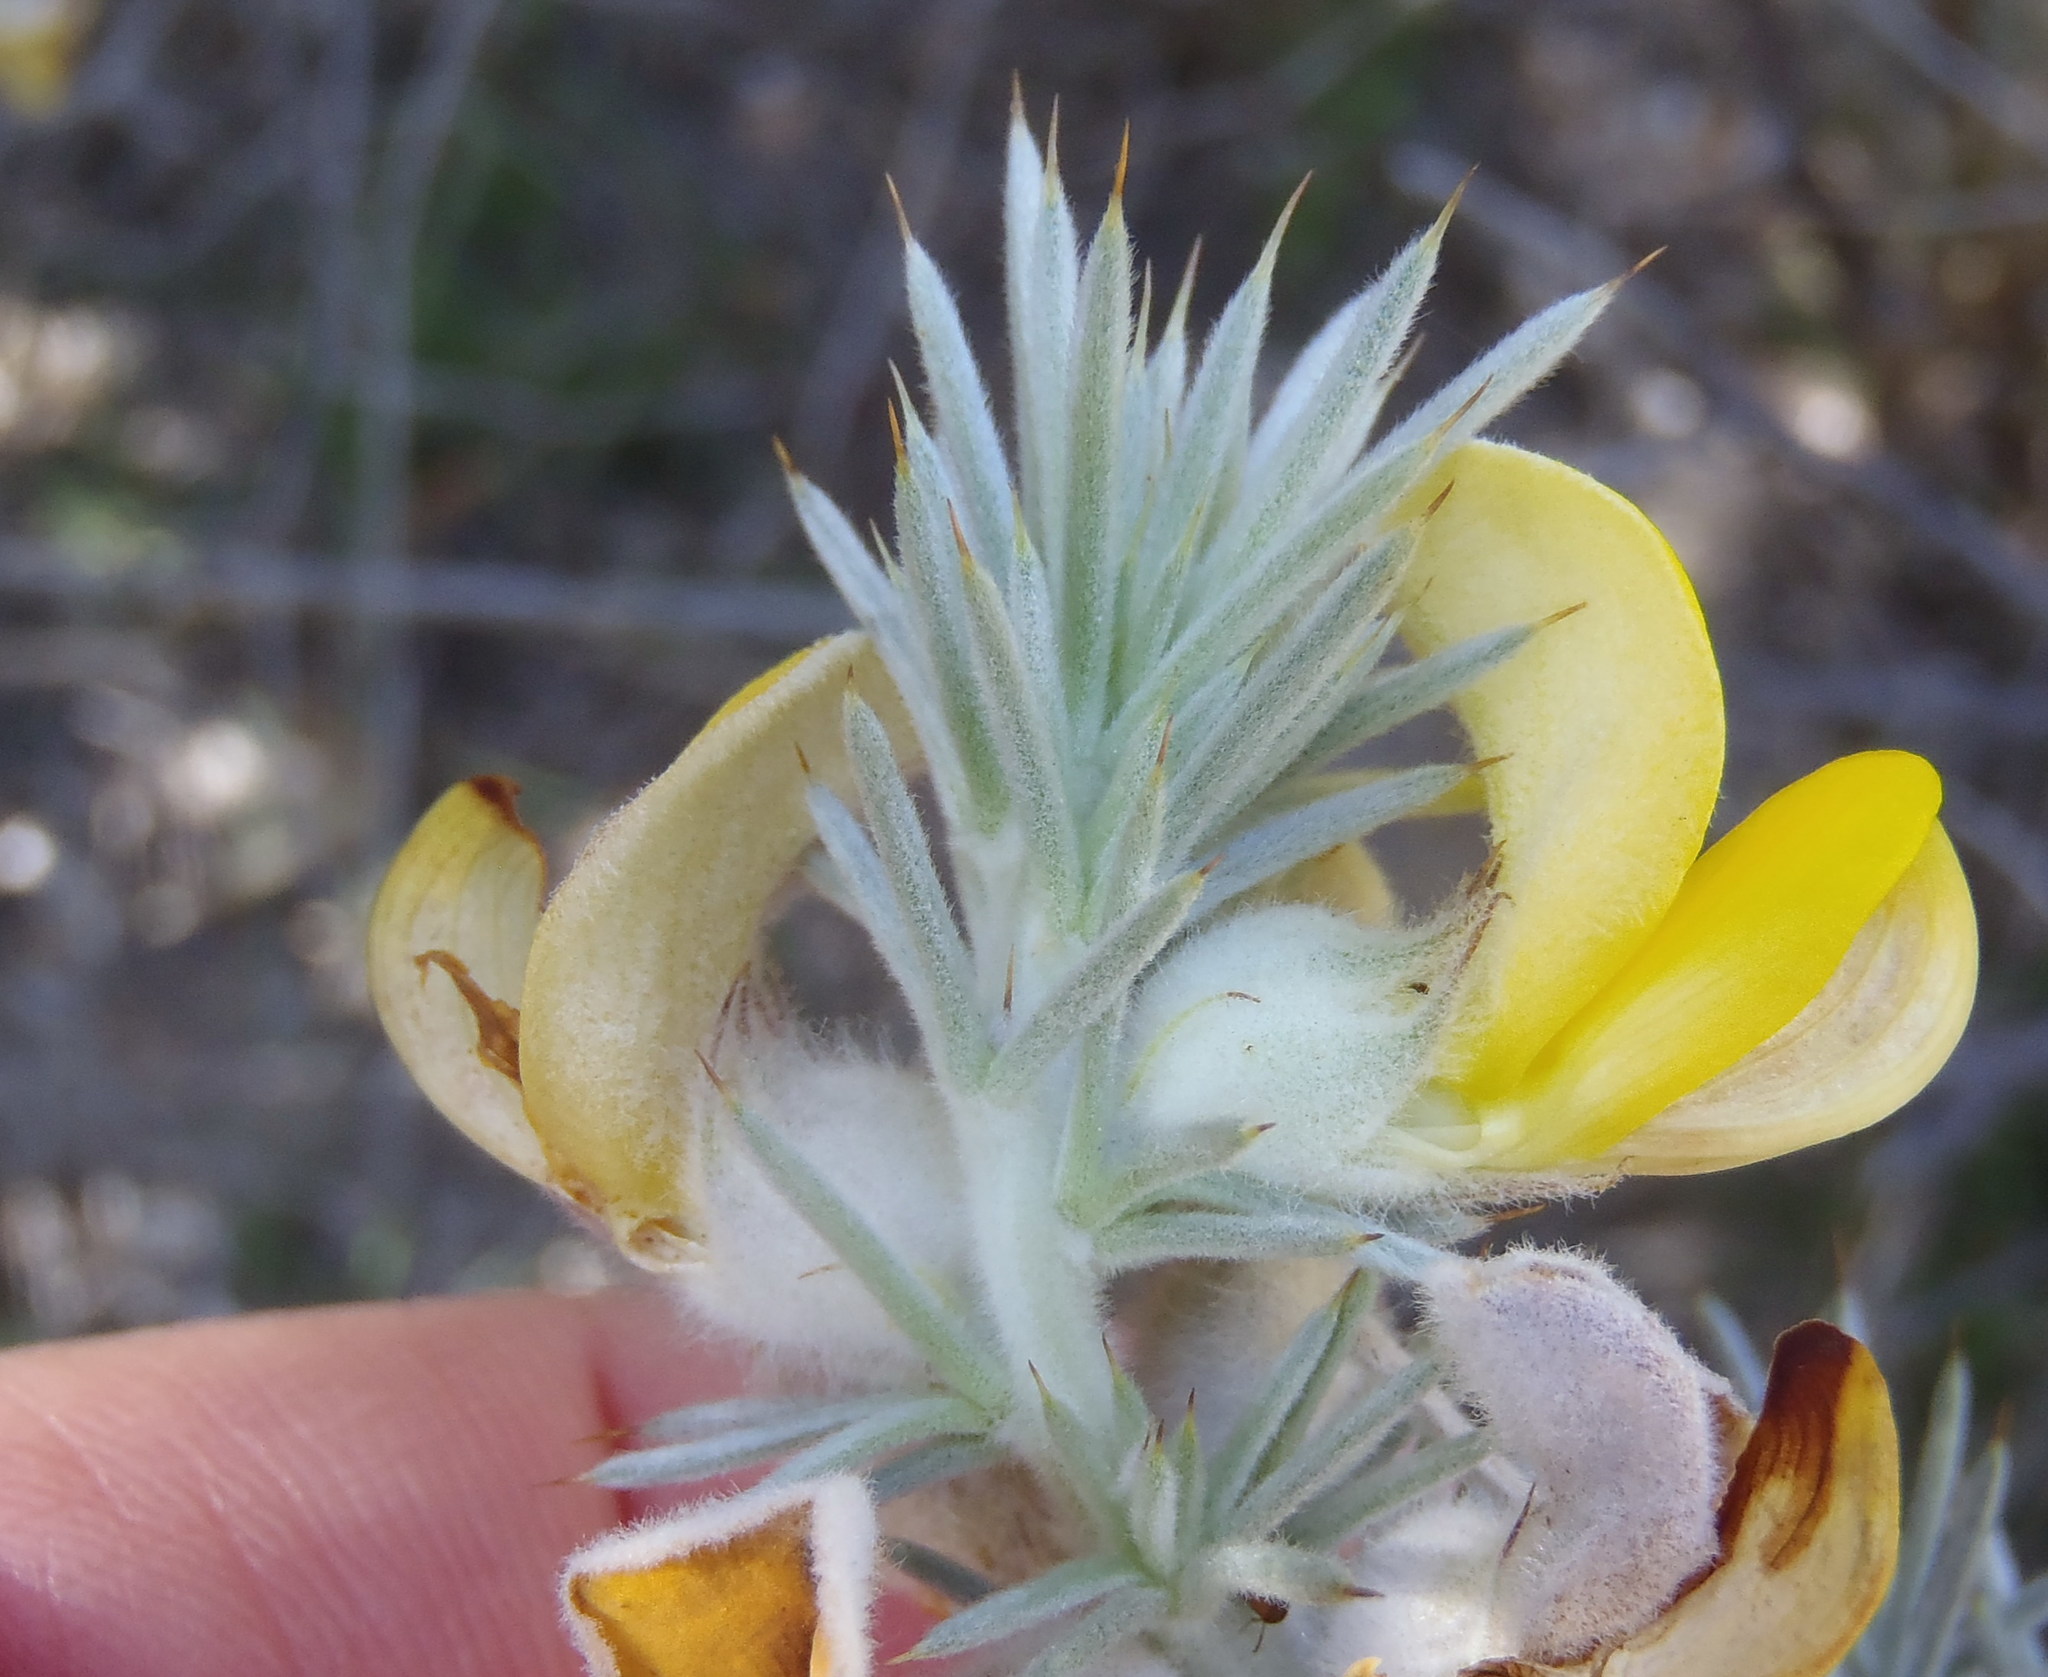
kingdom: Plantae
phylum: Tracheophyta
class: Magnoliopsida
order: Fabales
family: Fabaceae
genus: Aspalathus
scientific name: Aspalathus hystrix
